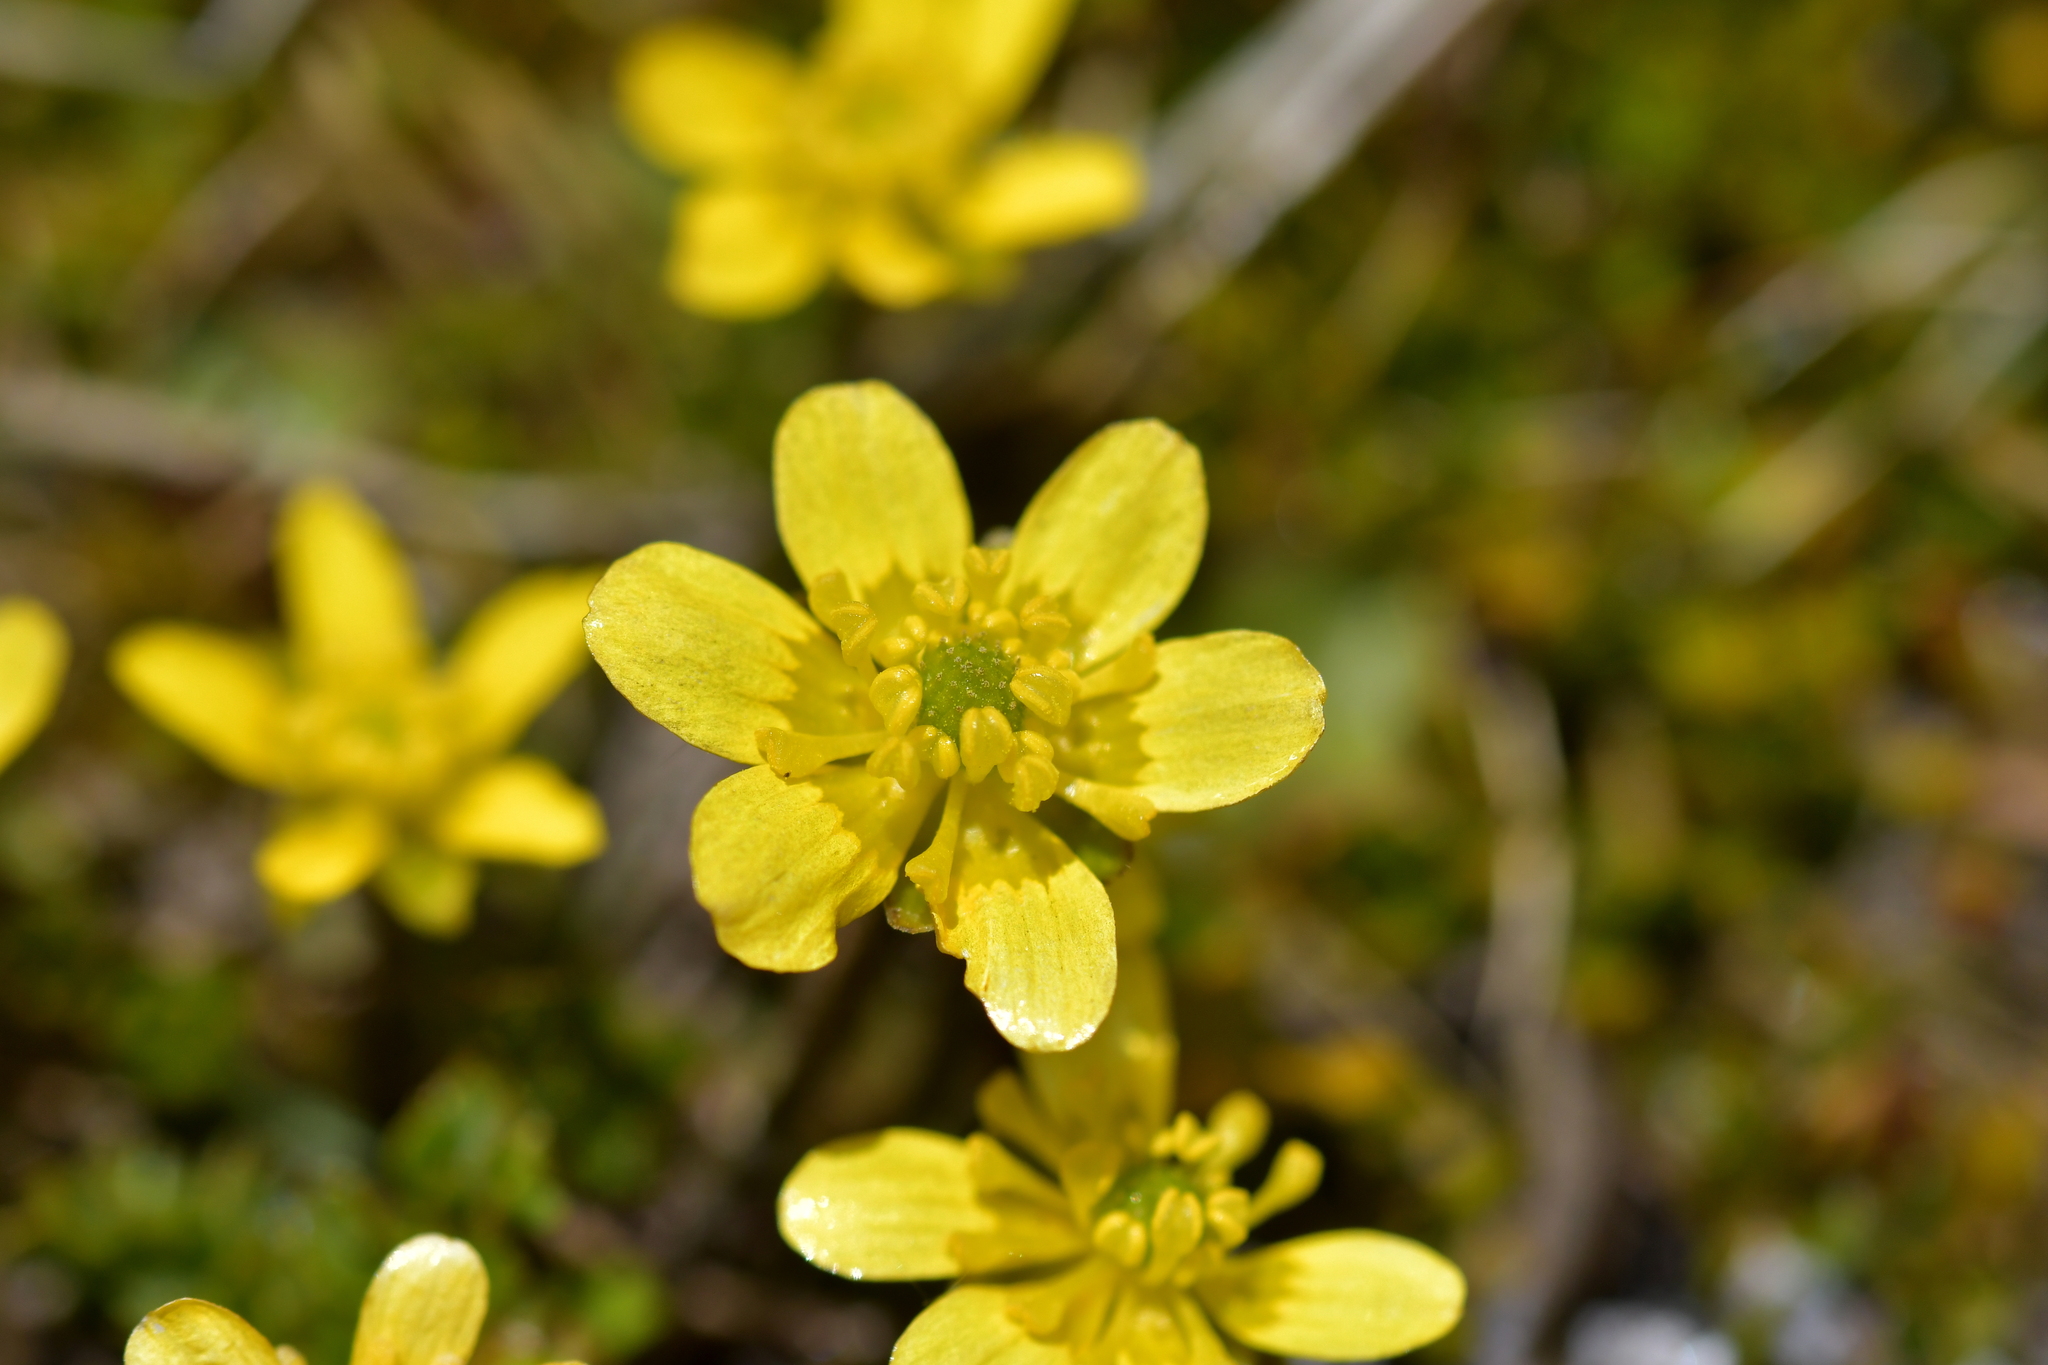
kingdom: Plantae
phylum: Tracheophyta
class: Magnoliopsida
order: Ranunculales
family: Ranunculaceae
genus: Ranunculus
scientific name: Ranunculus gracilipes
